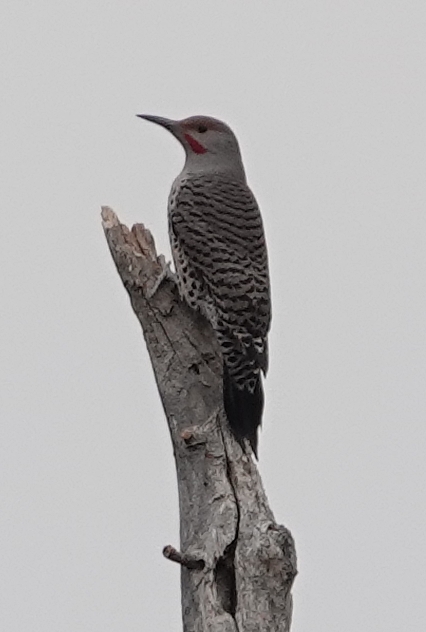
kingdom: Animalia
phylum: Chordata
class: Aves
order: Piciformes
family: Picidae
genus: Colaptes
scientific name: Colaptes auratus
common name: Northern flicker
